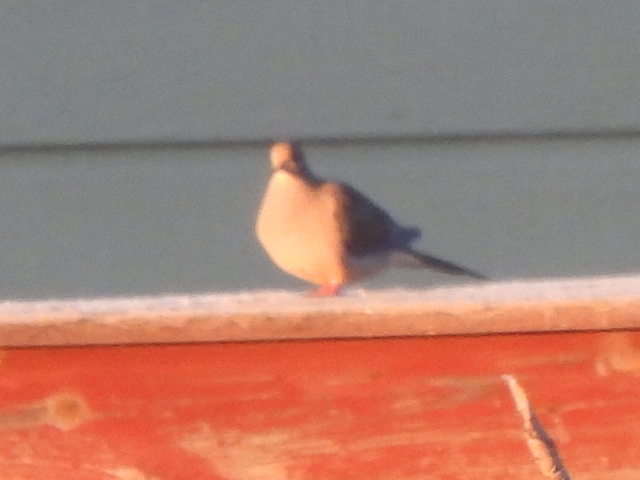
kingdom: Animalia
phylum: Chordata
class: Aves
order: Columbiformes
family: Columbidae
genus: Zenaida
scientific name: Zenaida macroura
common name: Mourning dove
